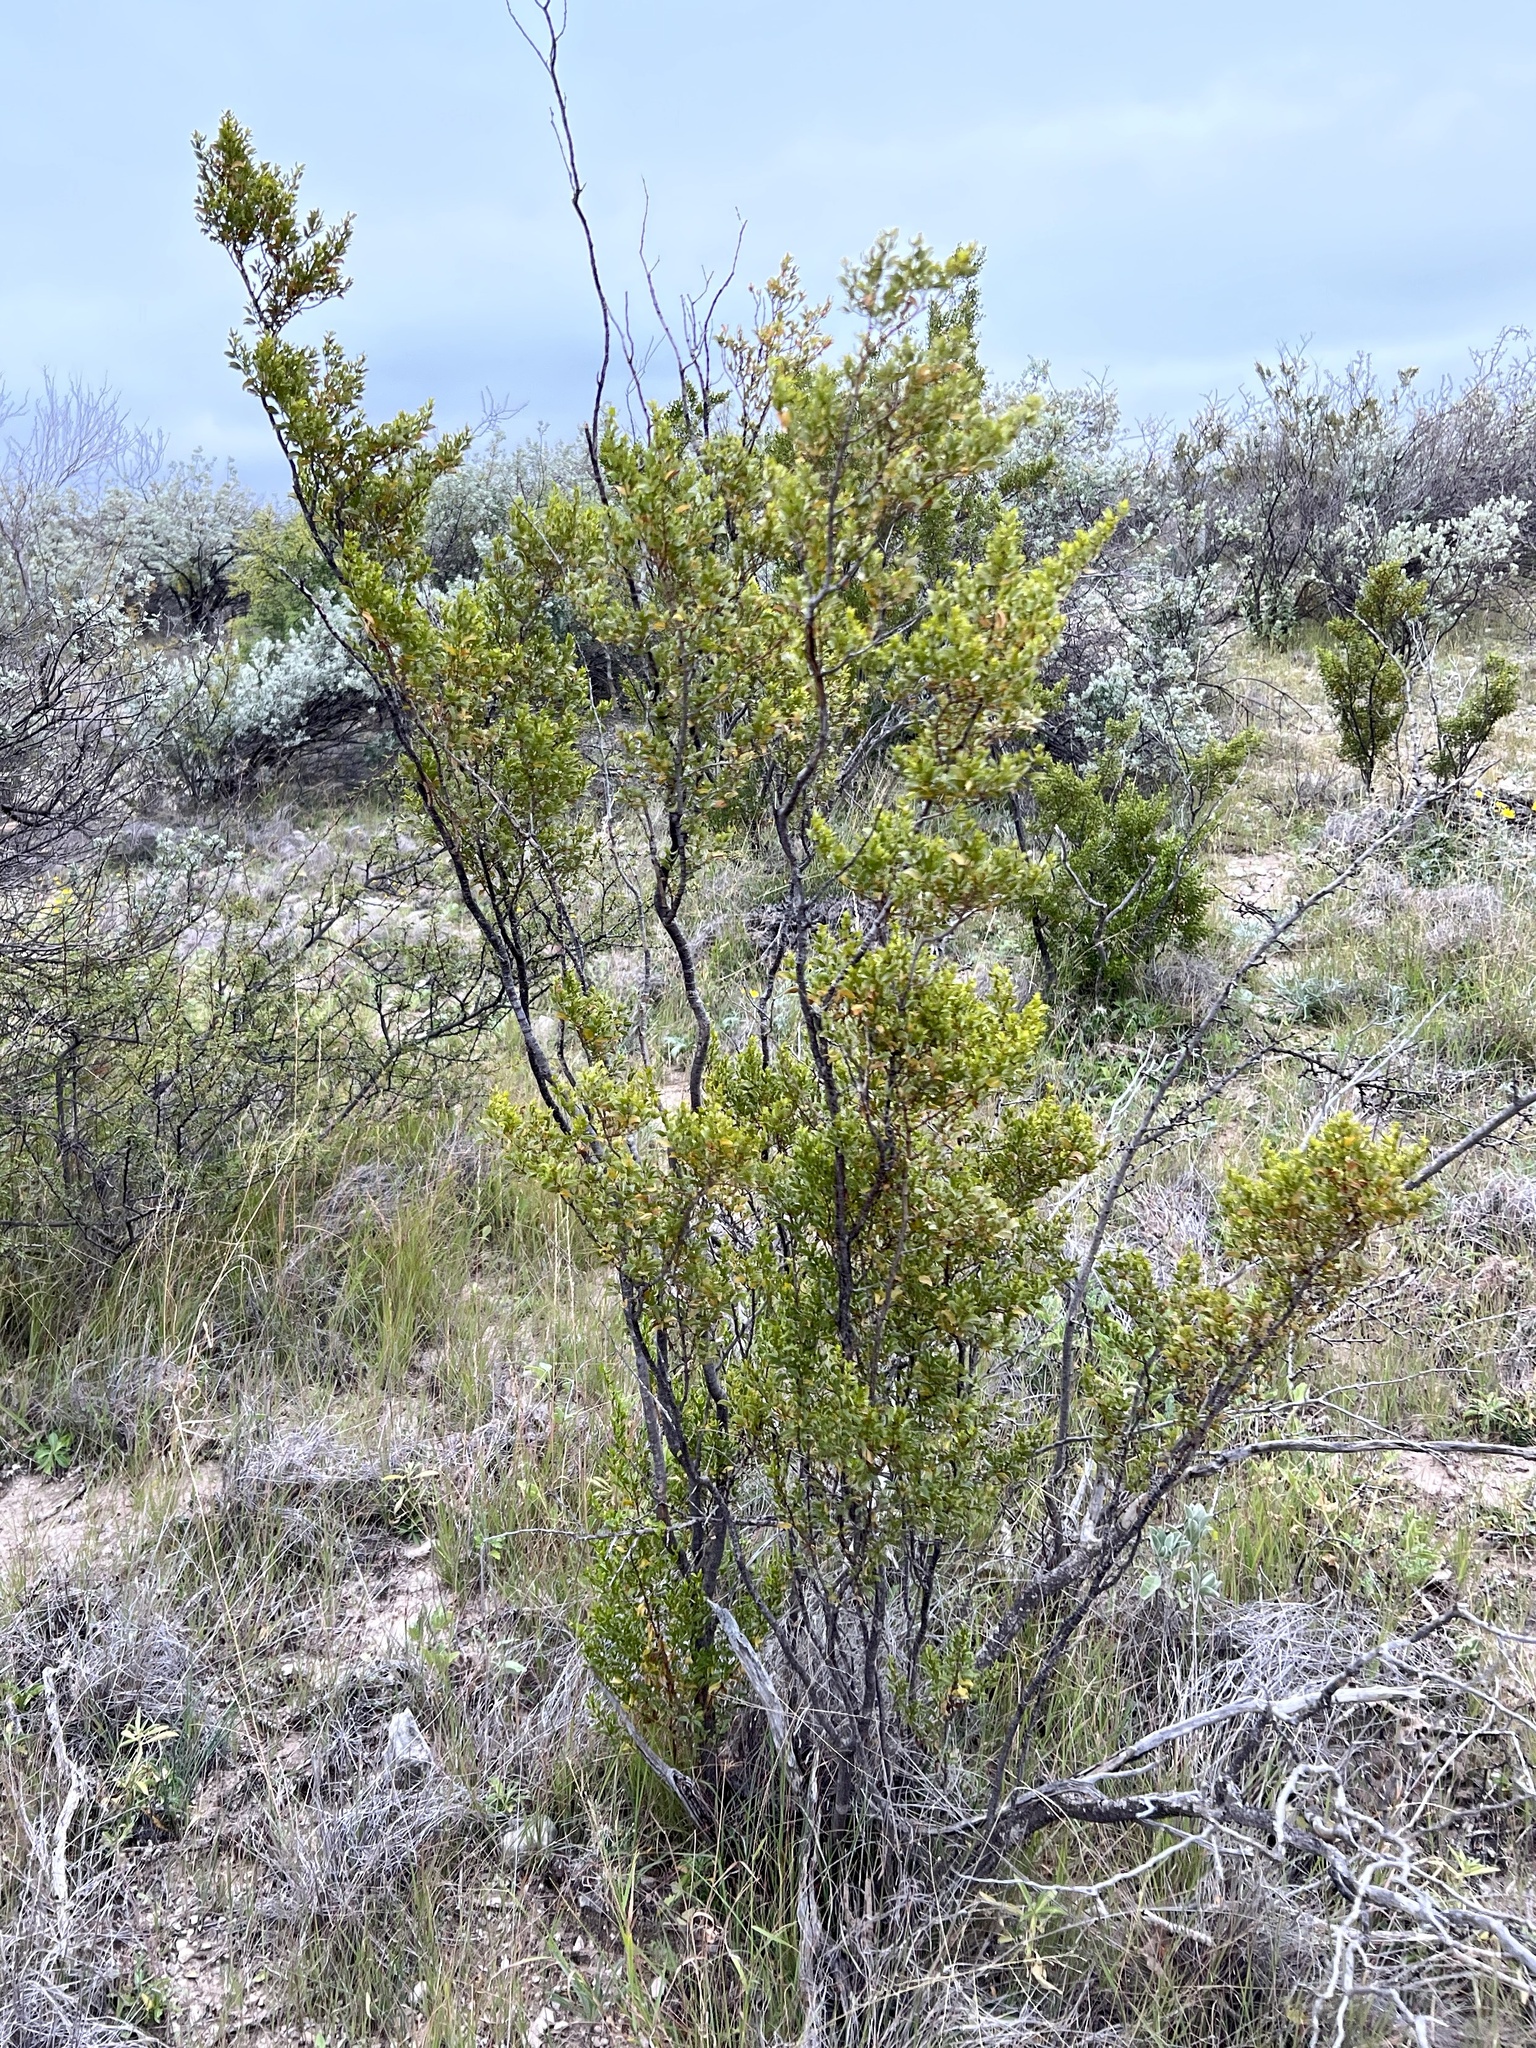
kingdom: Plantae
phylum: Tracheophyta
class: Magnoliopsida
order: Zygophyllales
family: Zygophyllaceae
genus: Larrea
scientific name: Larrea tridentata
